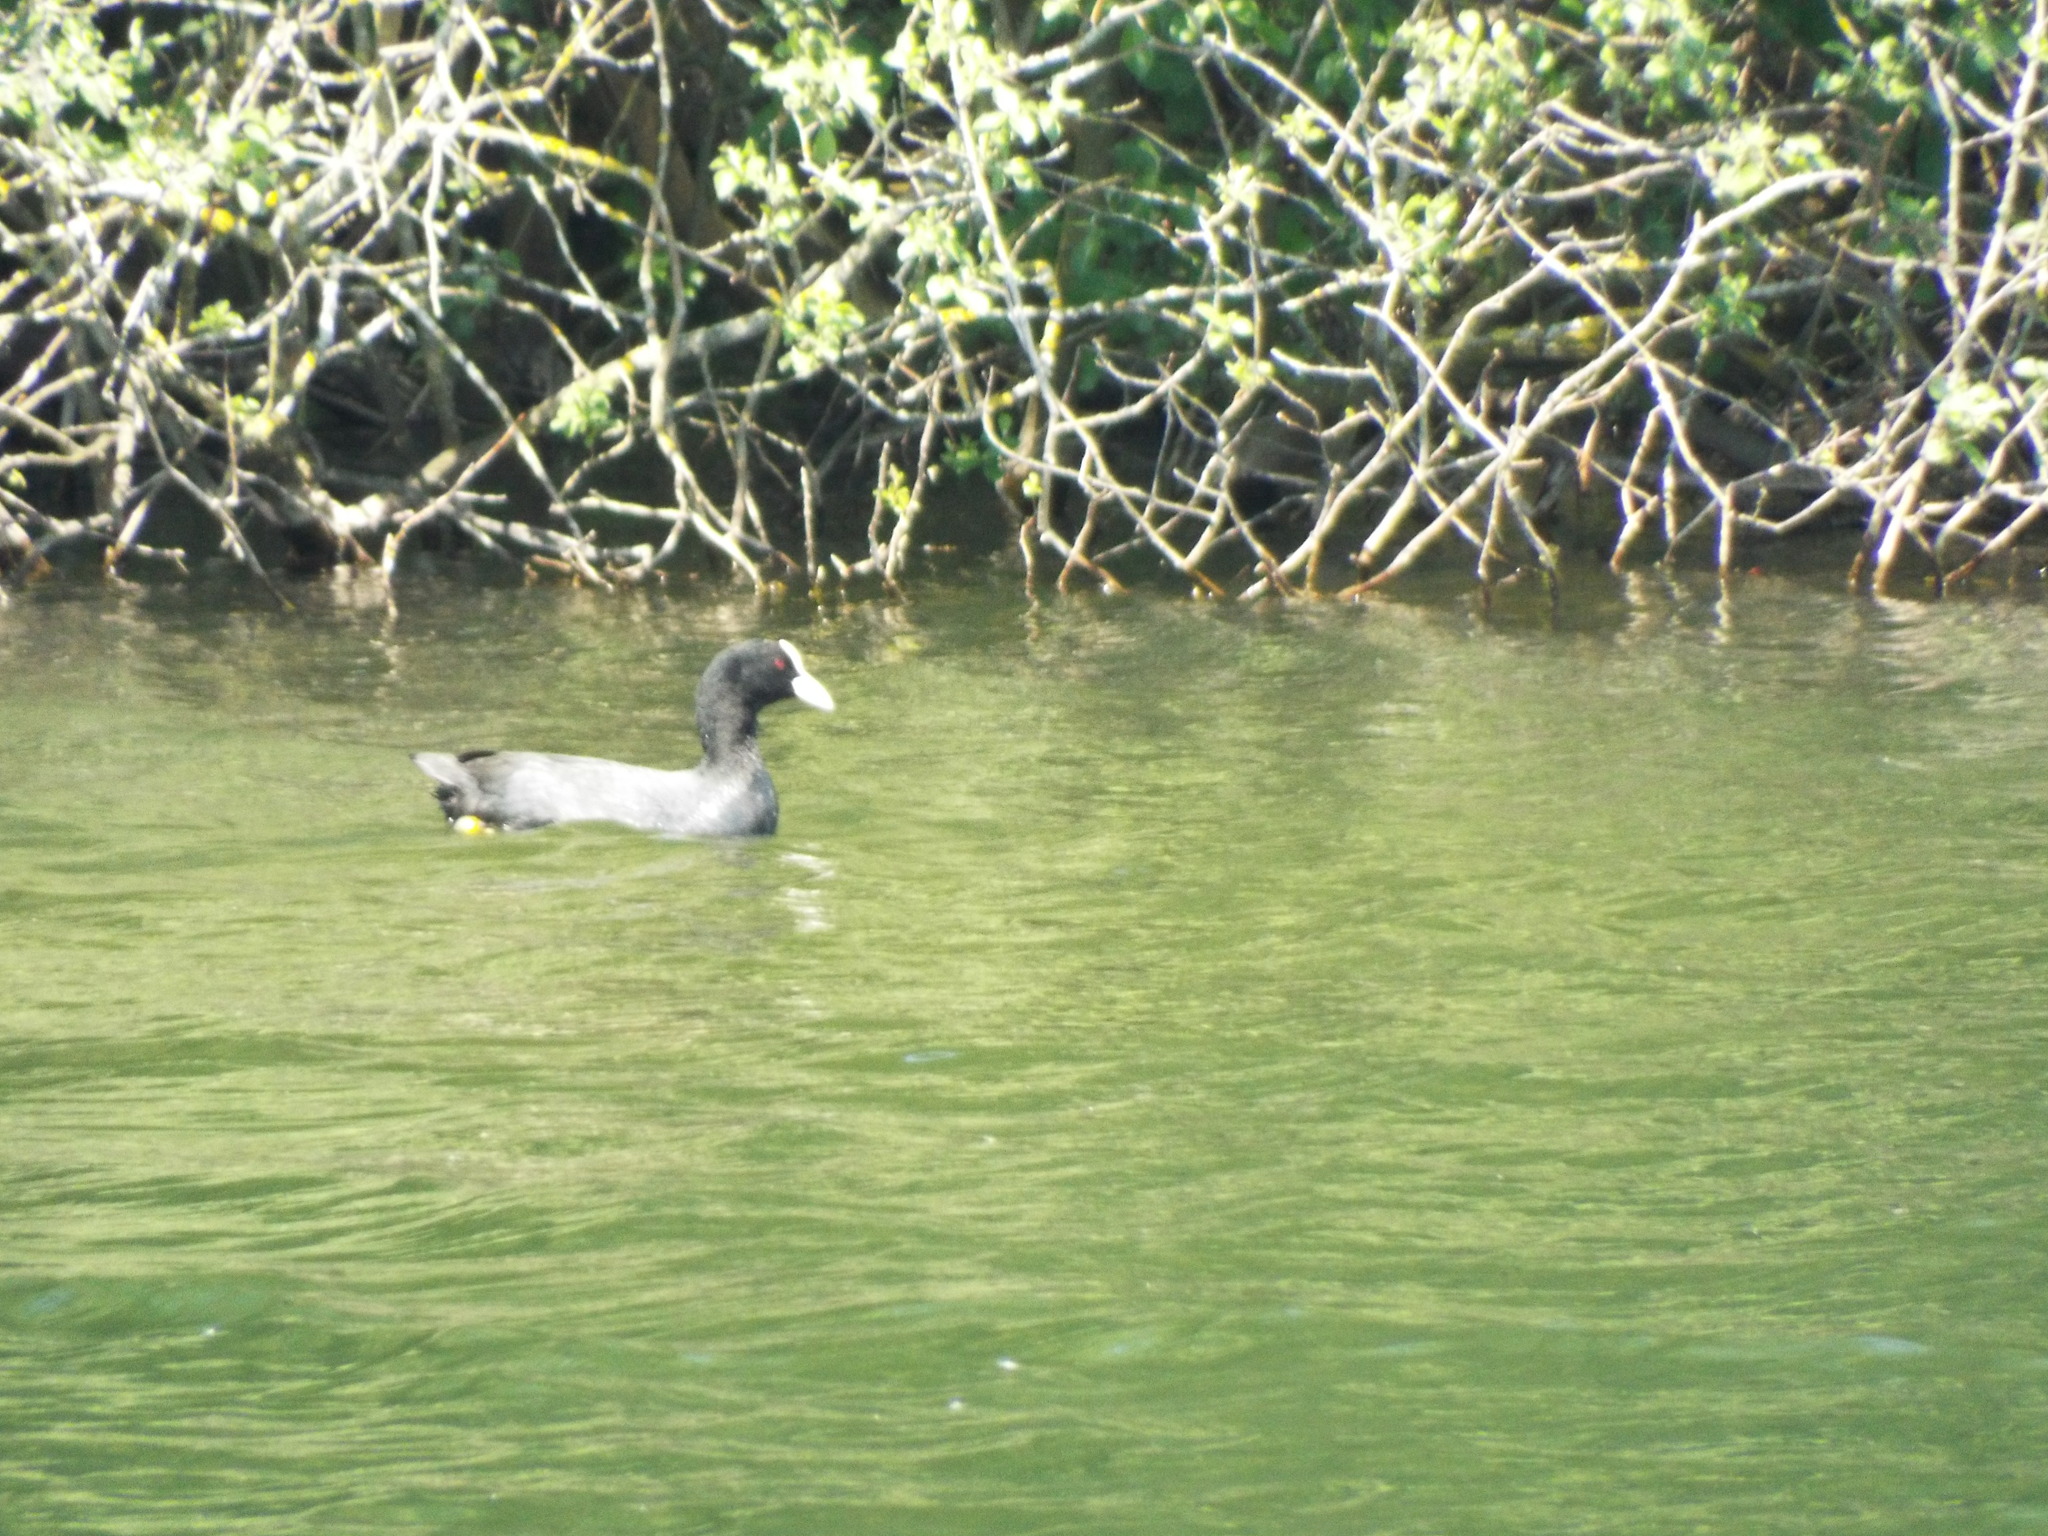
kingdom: Animalia
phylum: Chordata
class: Aves
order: Gruiformes
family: Rallidae
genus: Fulica
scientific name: Fulica atra
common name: Eurasian coot
